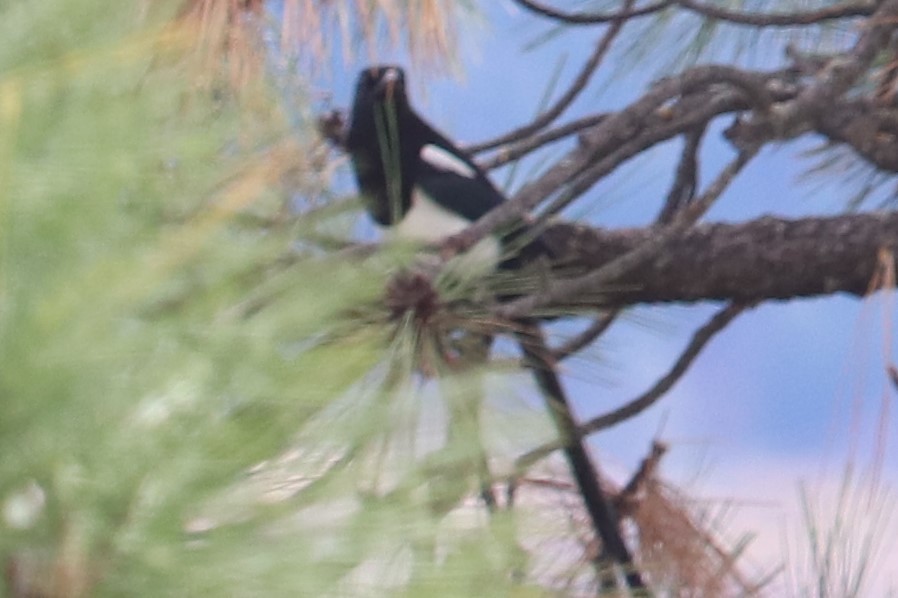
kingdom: Animalia
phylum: Chordata
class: Aves
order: Passeriformes
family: Corvidae
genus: Pica
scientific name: Pica hudsonia
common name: Black-billed magpie
